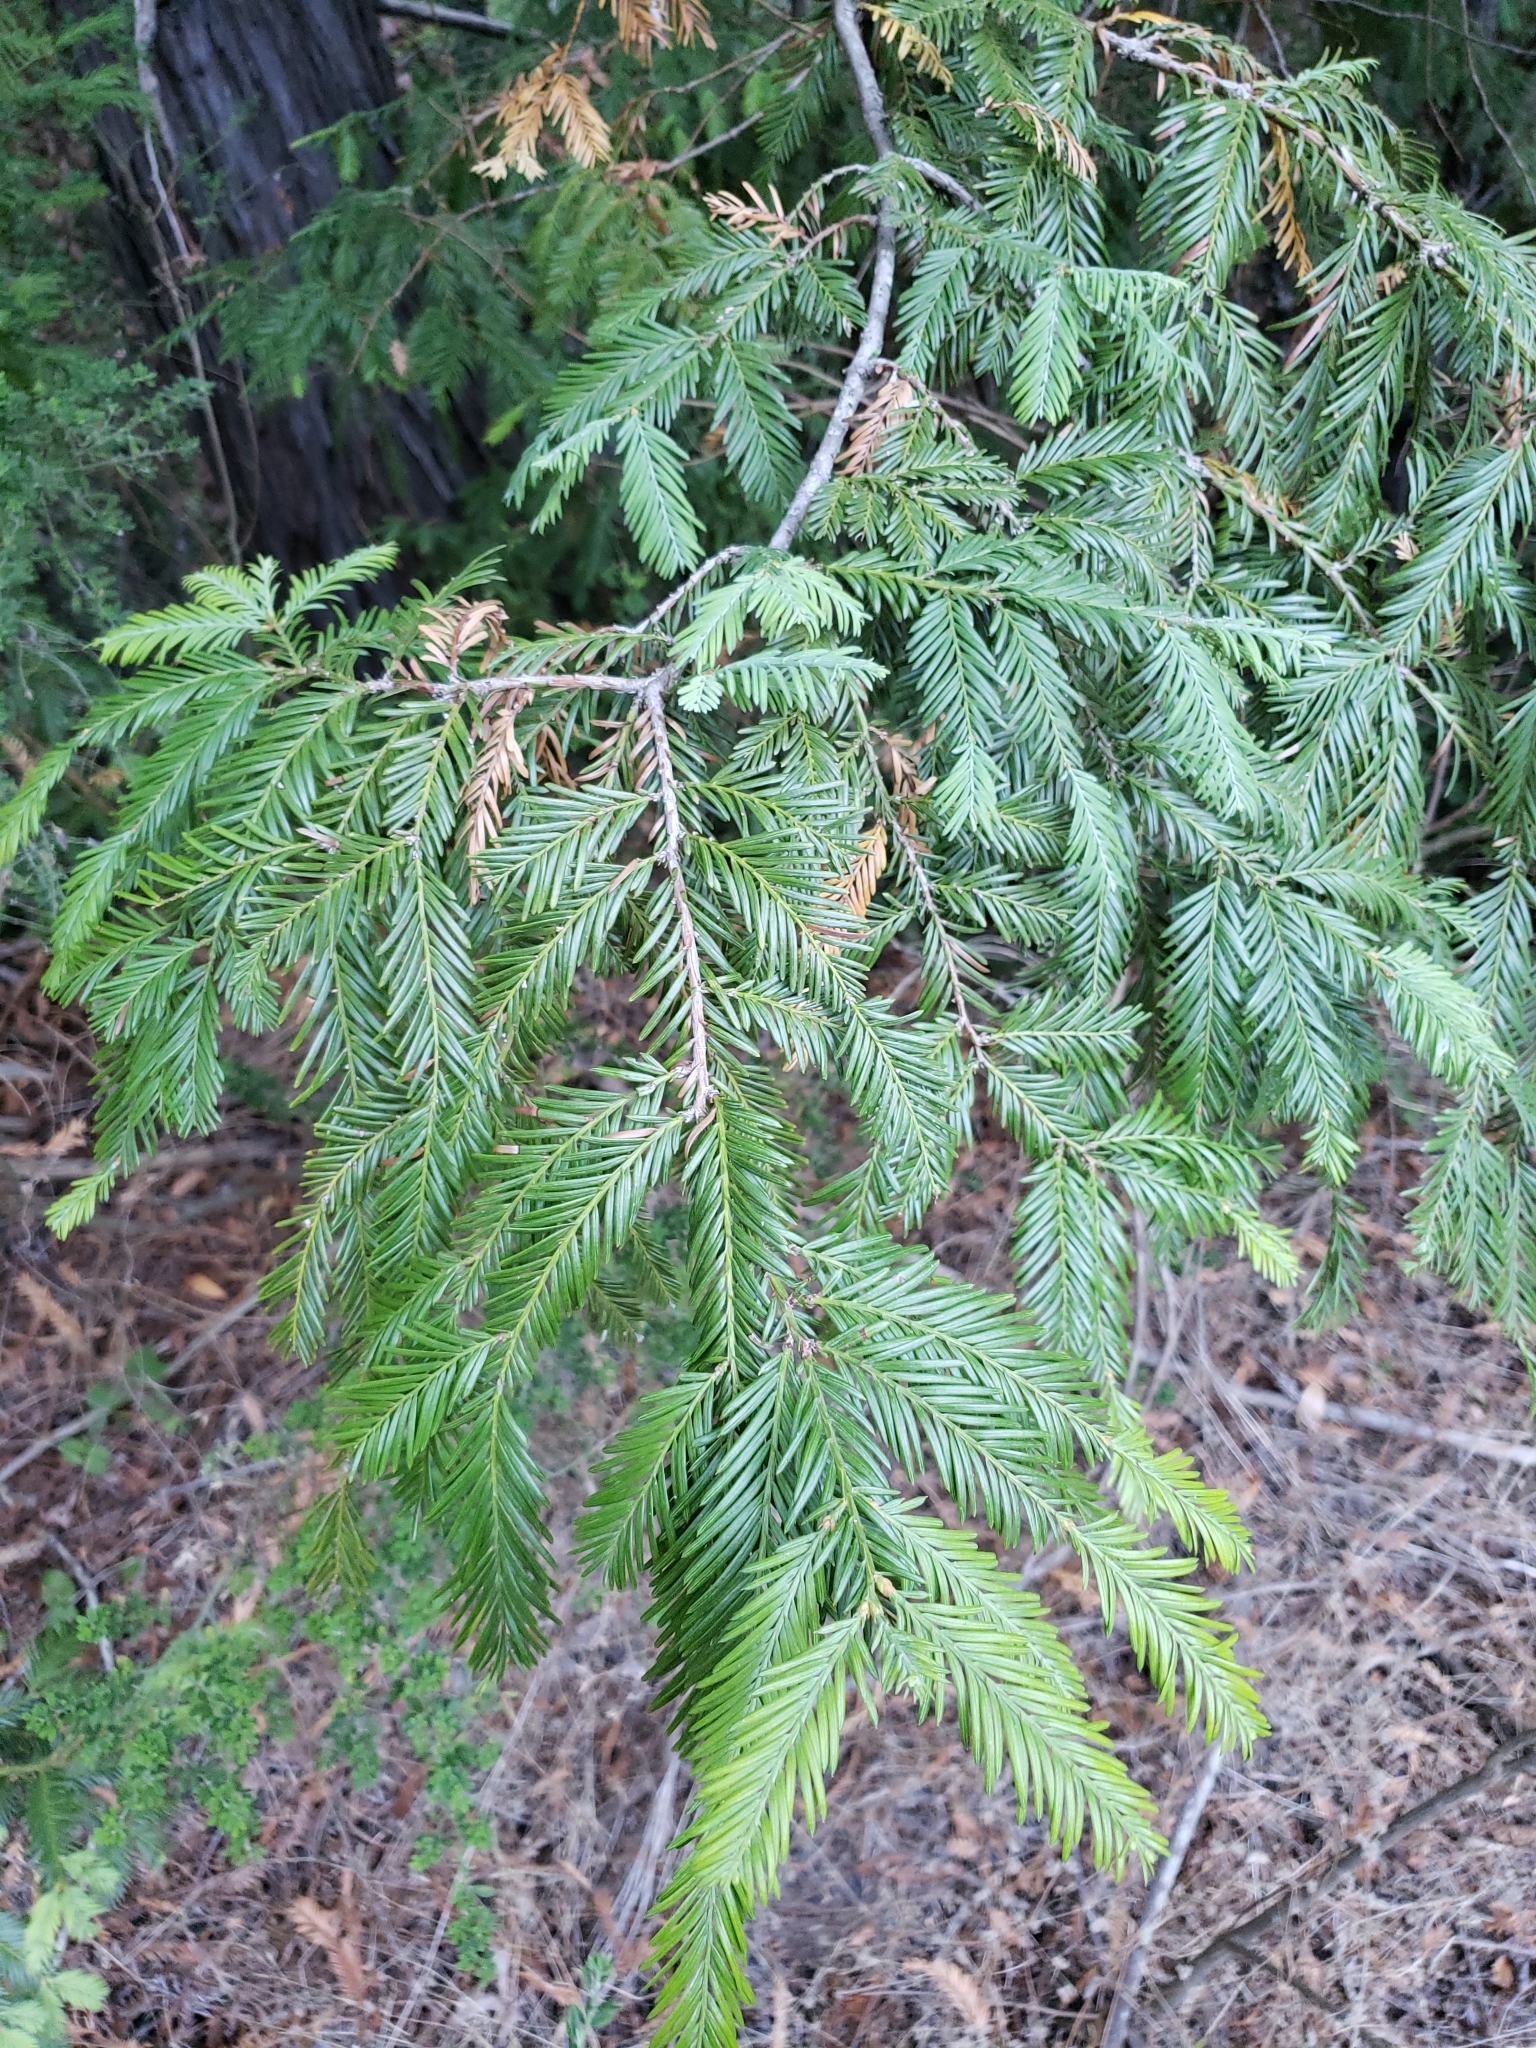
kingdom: Plantae
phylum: Tracheophyta
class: Pinopsida
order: Pinales
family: Cupressaceae
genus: Sequoia
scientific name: Sequoia sempervirens
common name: Coast redwood
